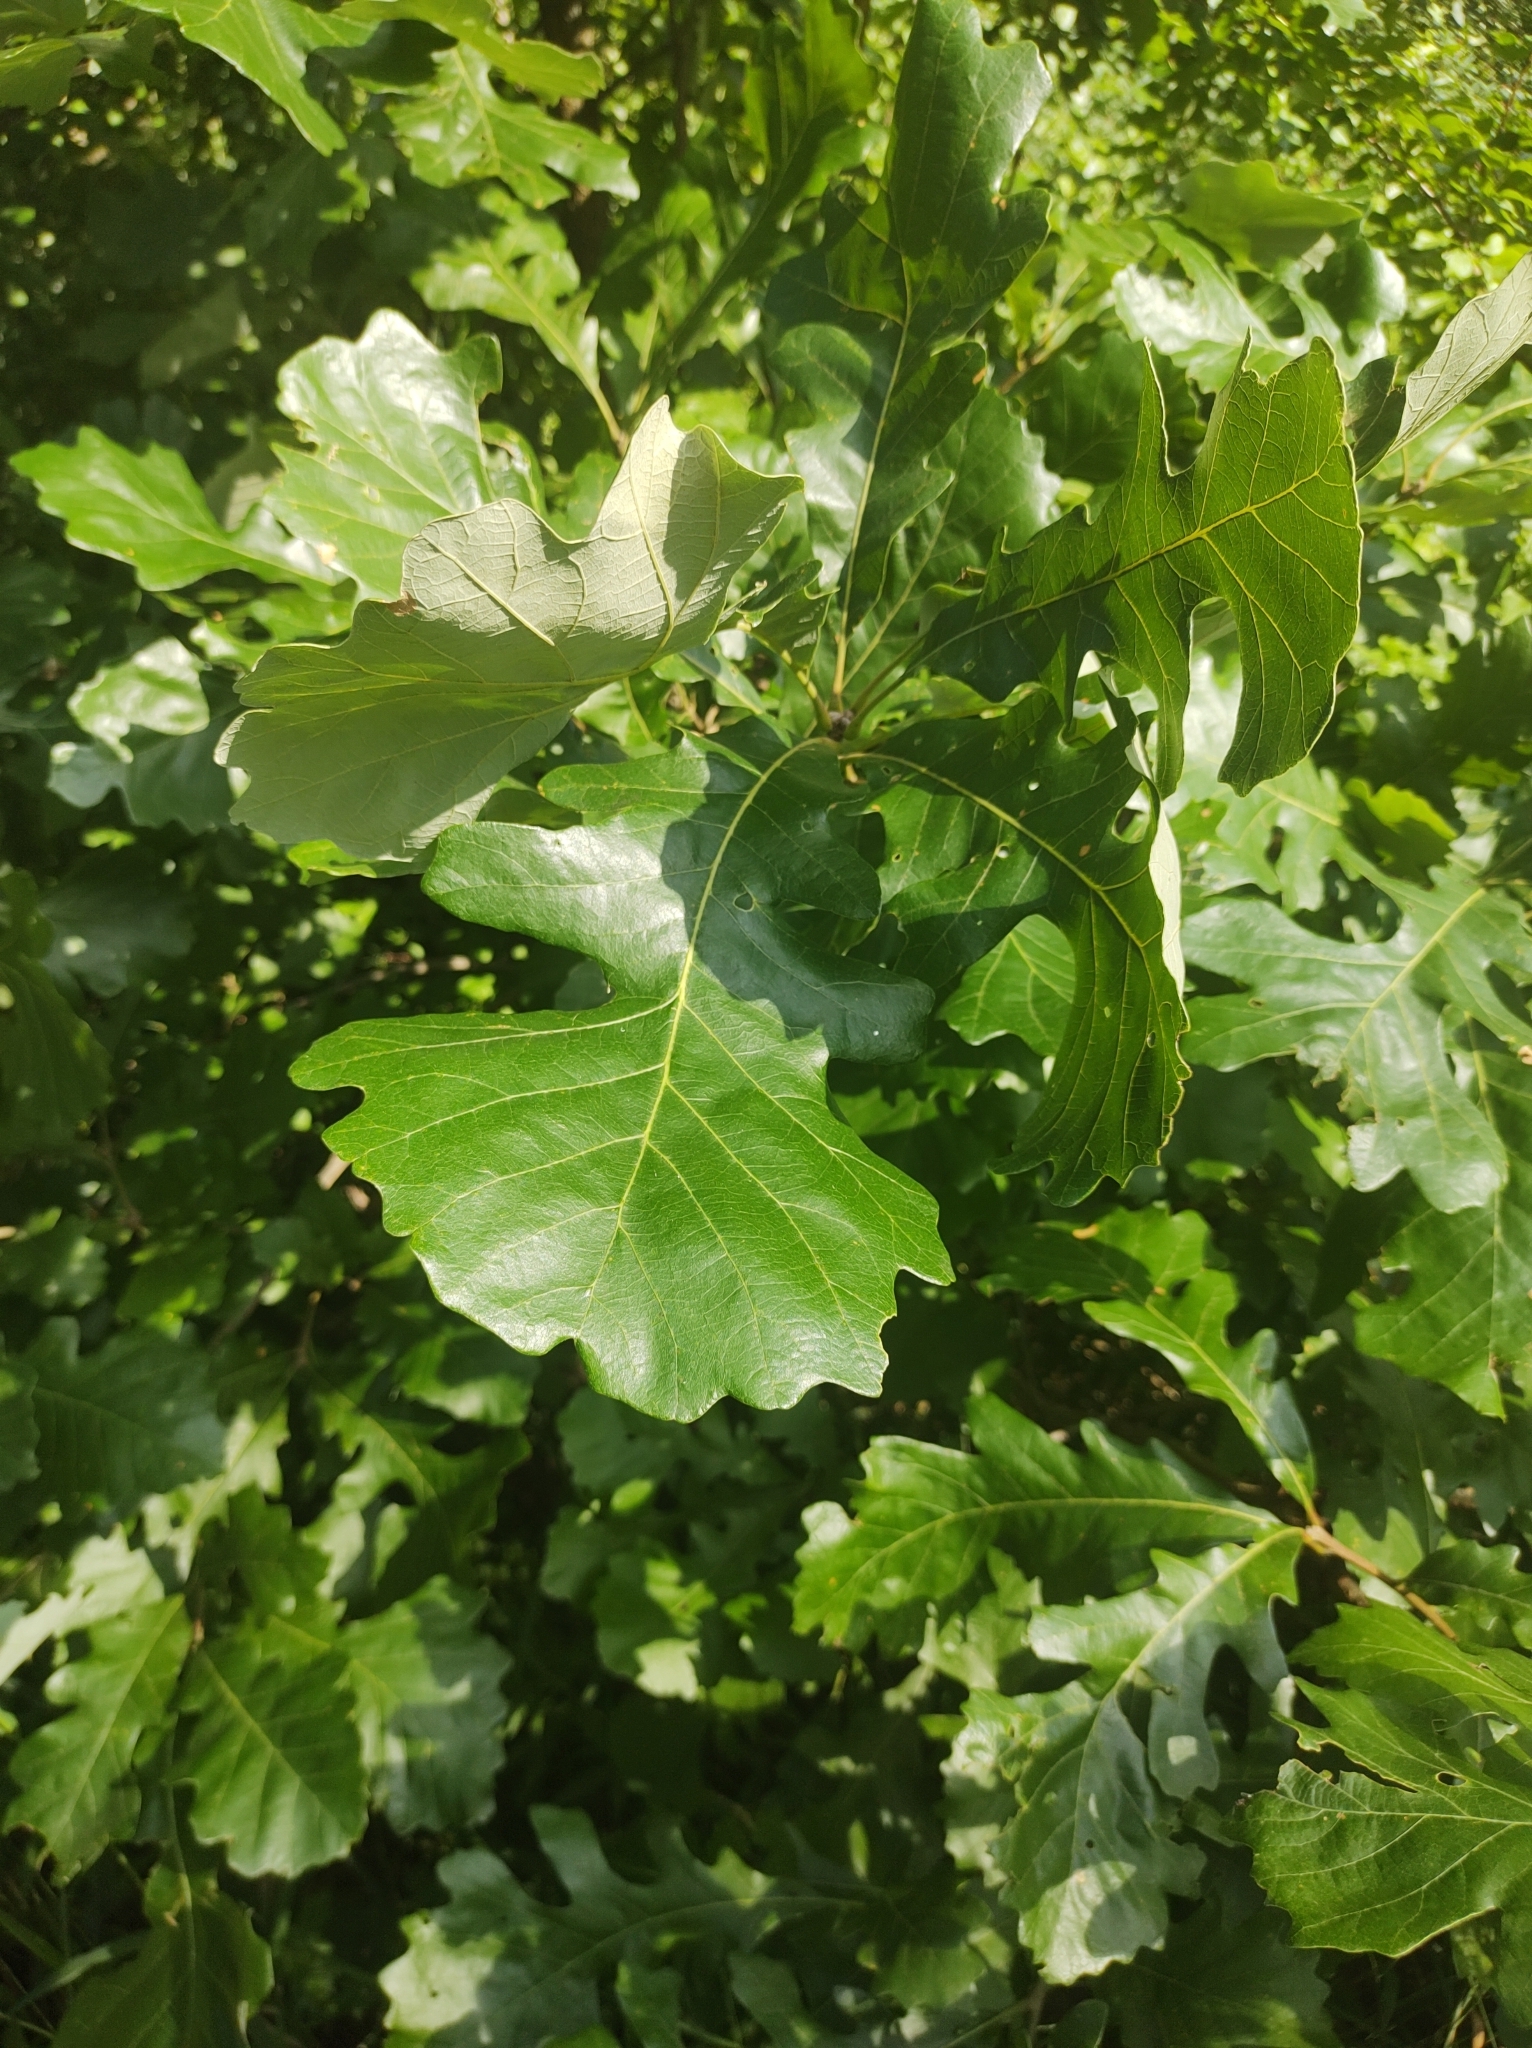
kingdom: Plantae
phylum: Tracheophyta
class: Magnoliopsida
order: Fagales
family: Fagaceae
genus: Quercus
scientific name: Quercus macrocarpa
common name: Bur oak
